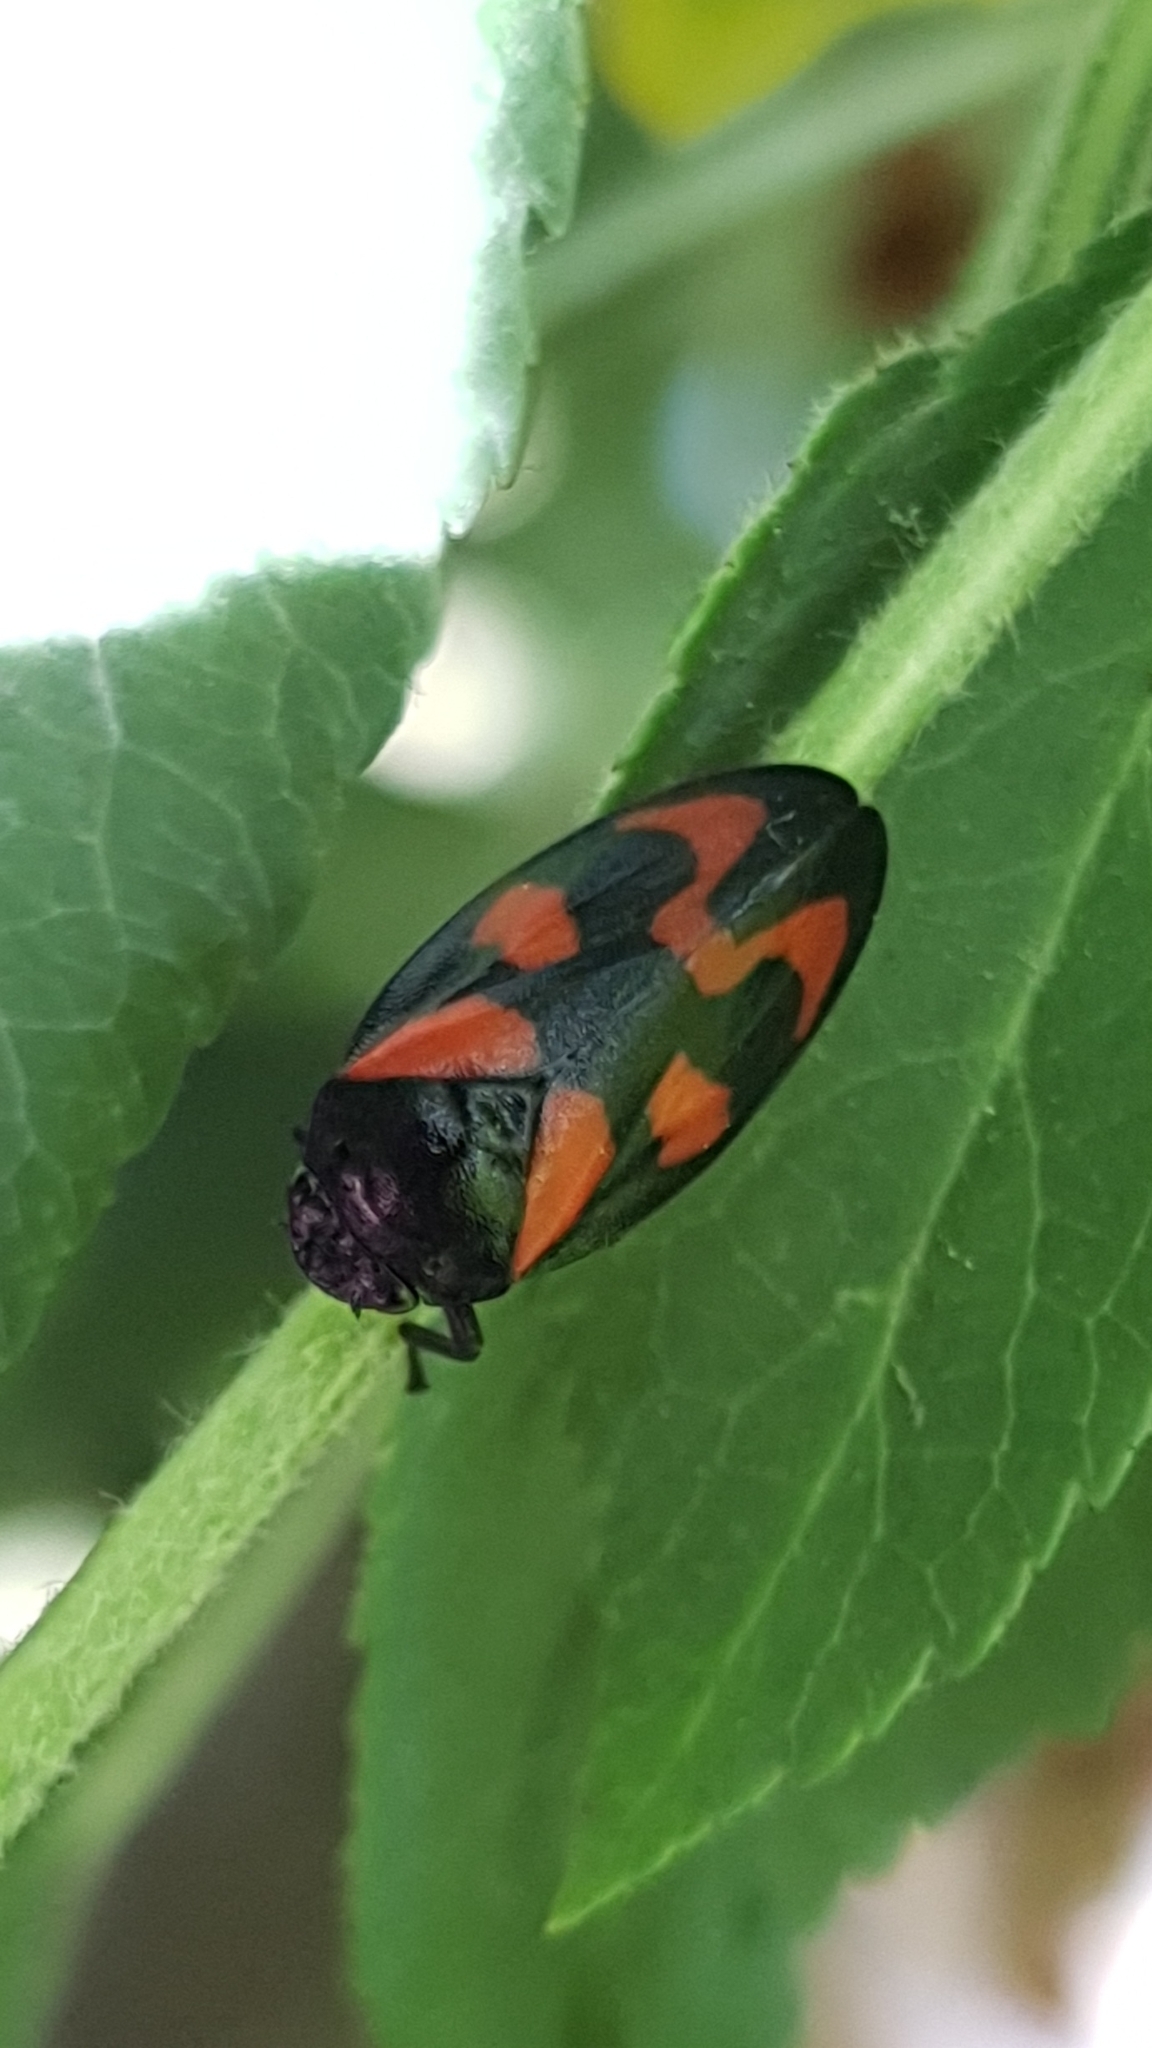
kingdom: Animalia
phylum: Arthropoda
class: Insecta
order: Hemiptera
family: Cercopidae
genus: Cercopis
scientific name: Cercopis vulnerata
